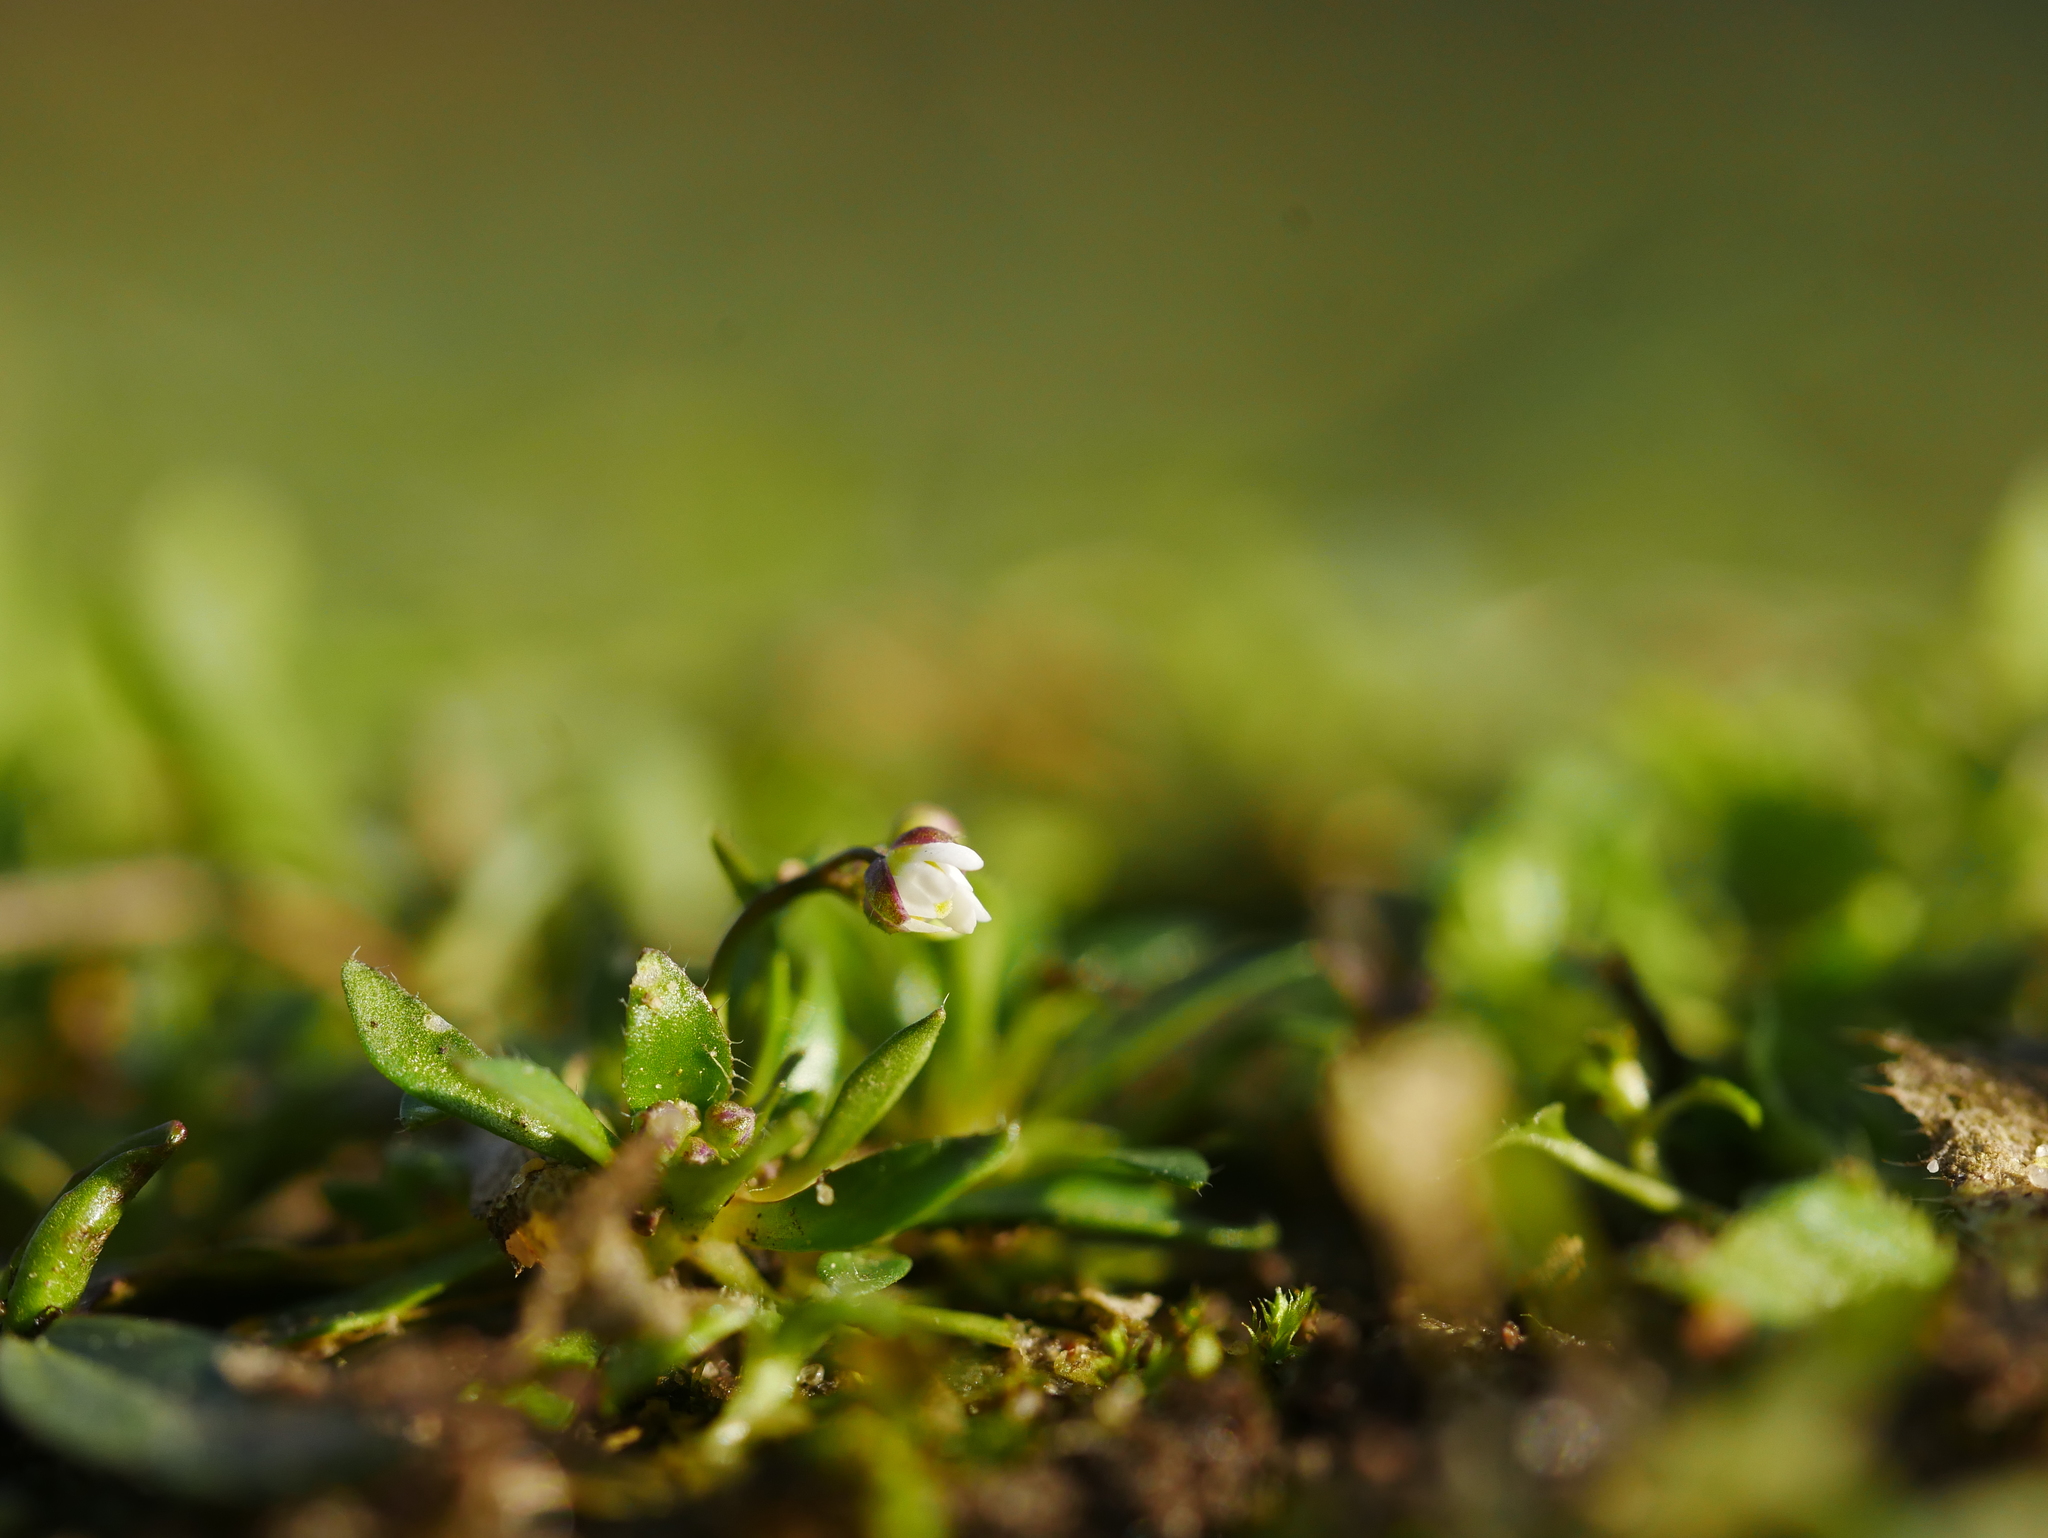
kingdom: Plantae
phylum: Tracheophyta
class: Magnoliopsida
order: Brassicales
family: Brassicaceae
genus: Draba
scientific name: Draba verna
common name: Spring draba
